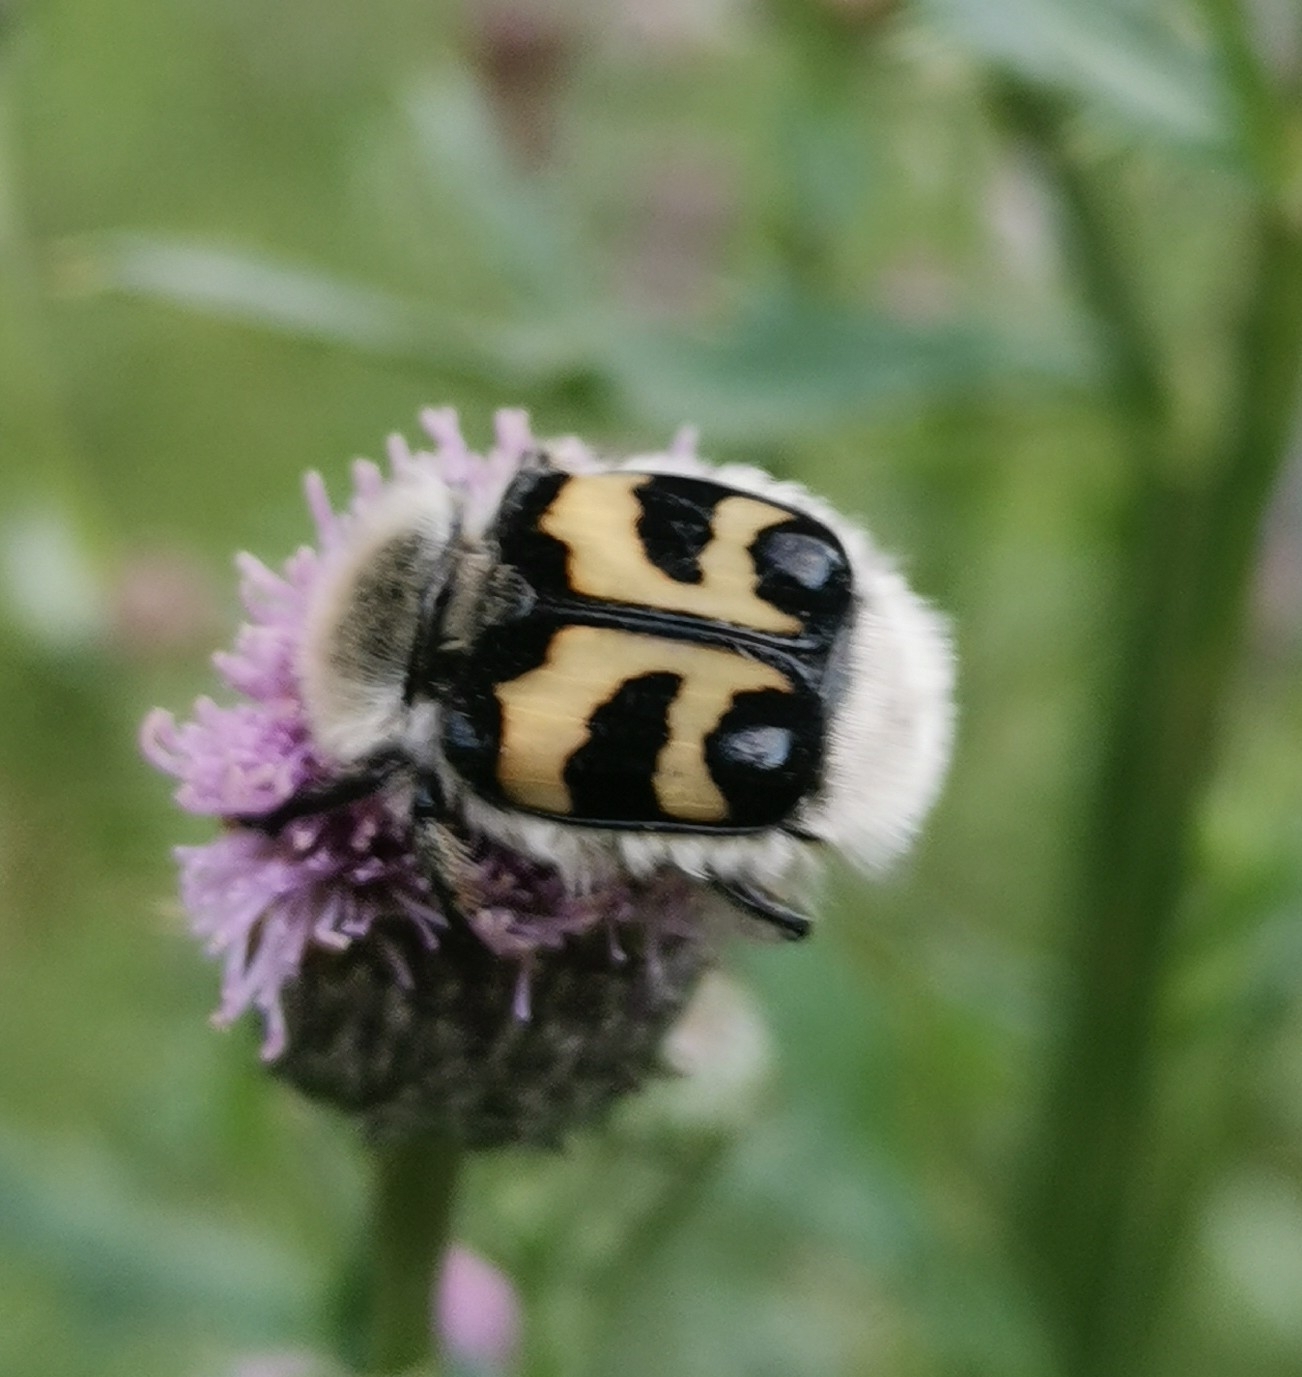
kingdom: Animalia
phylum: Arthropoda
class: Insecta
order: Coleoptera
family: Scarabaeidae
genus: Trichius
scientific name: Trichius fasciatus
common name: Bee beetle
